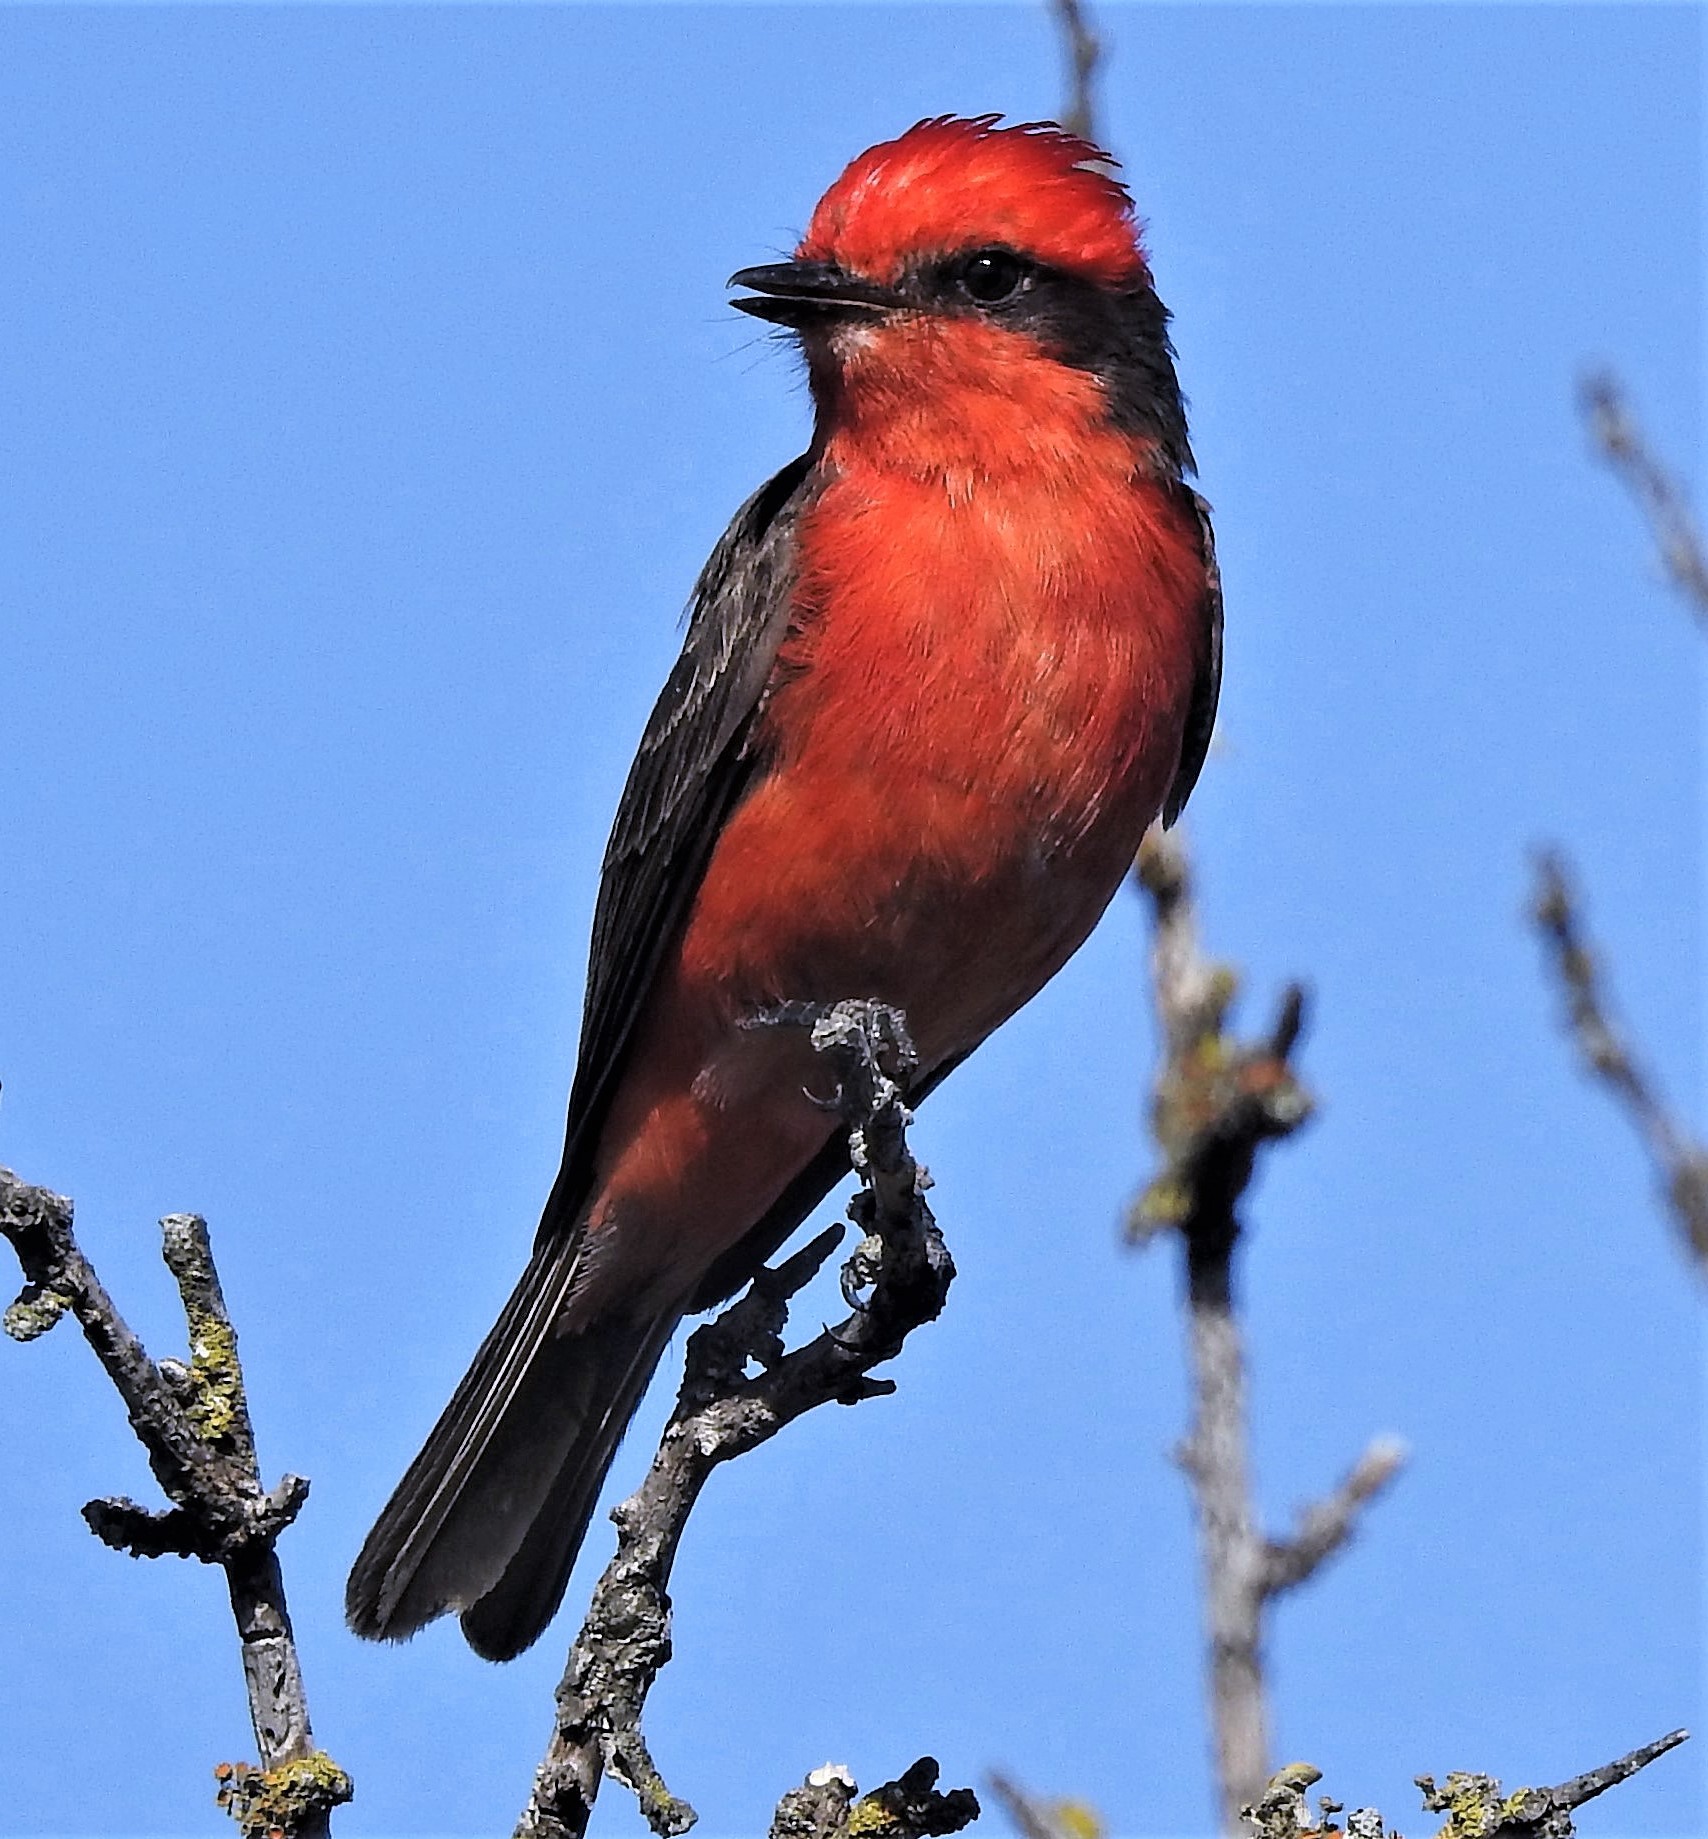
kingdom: Animalia
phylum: Chordata
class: Aves
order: Passeriformes
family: Tyrannidae
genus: Pyrocephalus
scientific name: Pyrocephalus rubinus
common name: Vermilion flycatcher
